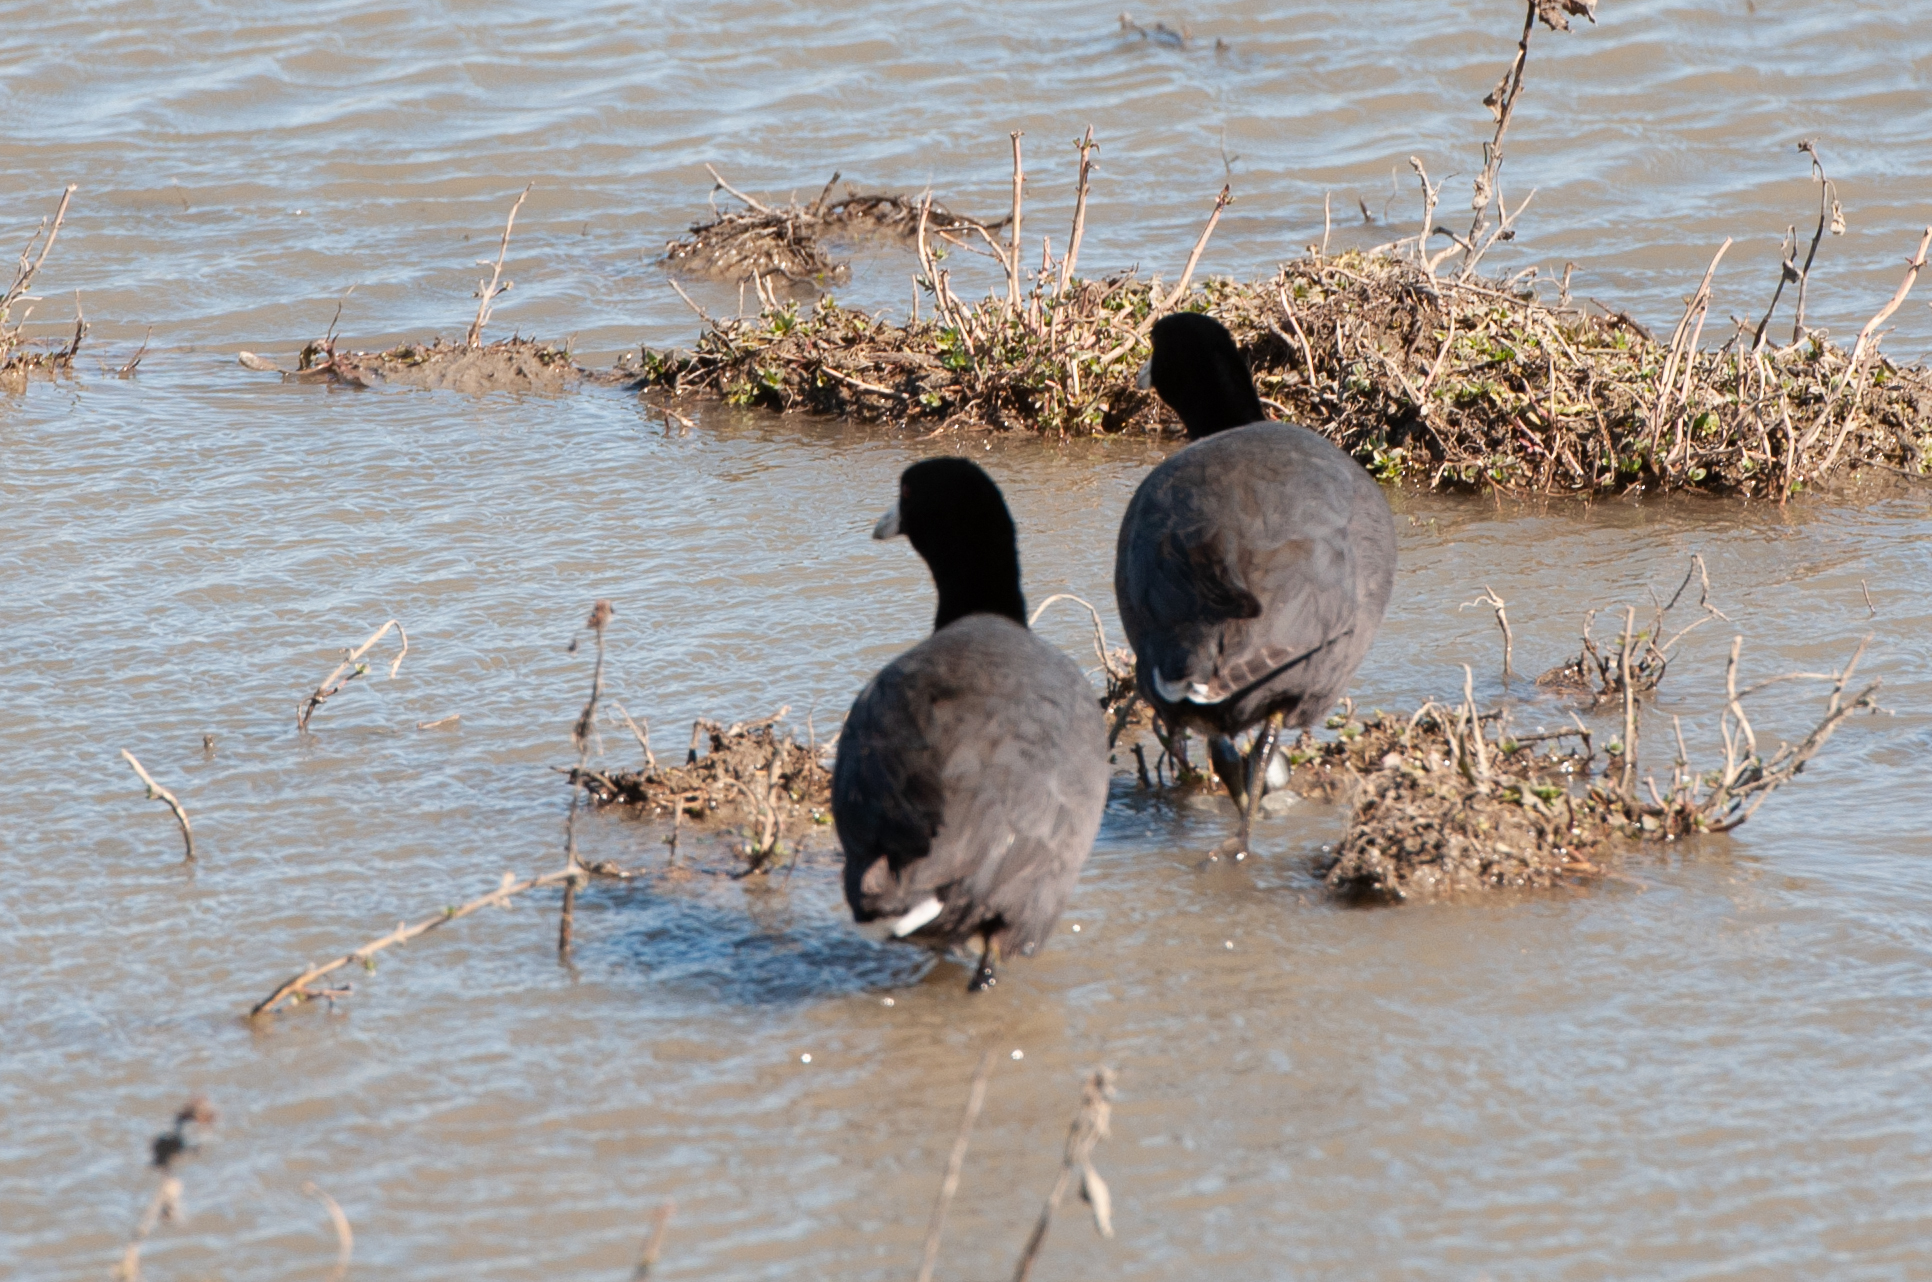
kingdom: Animalia
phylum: Chordata
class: Aves
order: Gruiformes
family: Rallidae
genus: Fulica
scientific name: Fulica americana
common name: American coot
